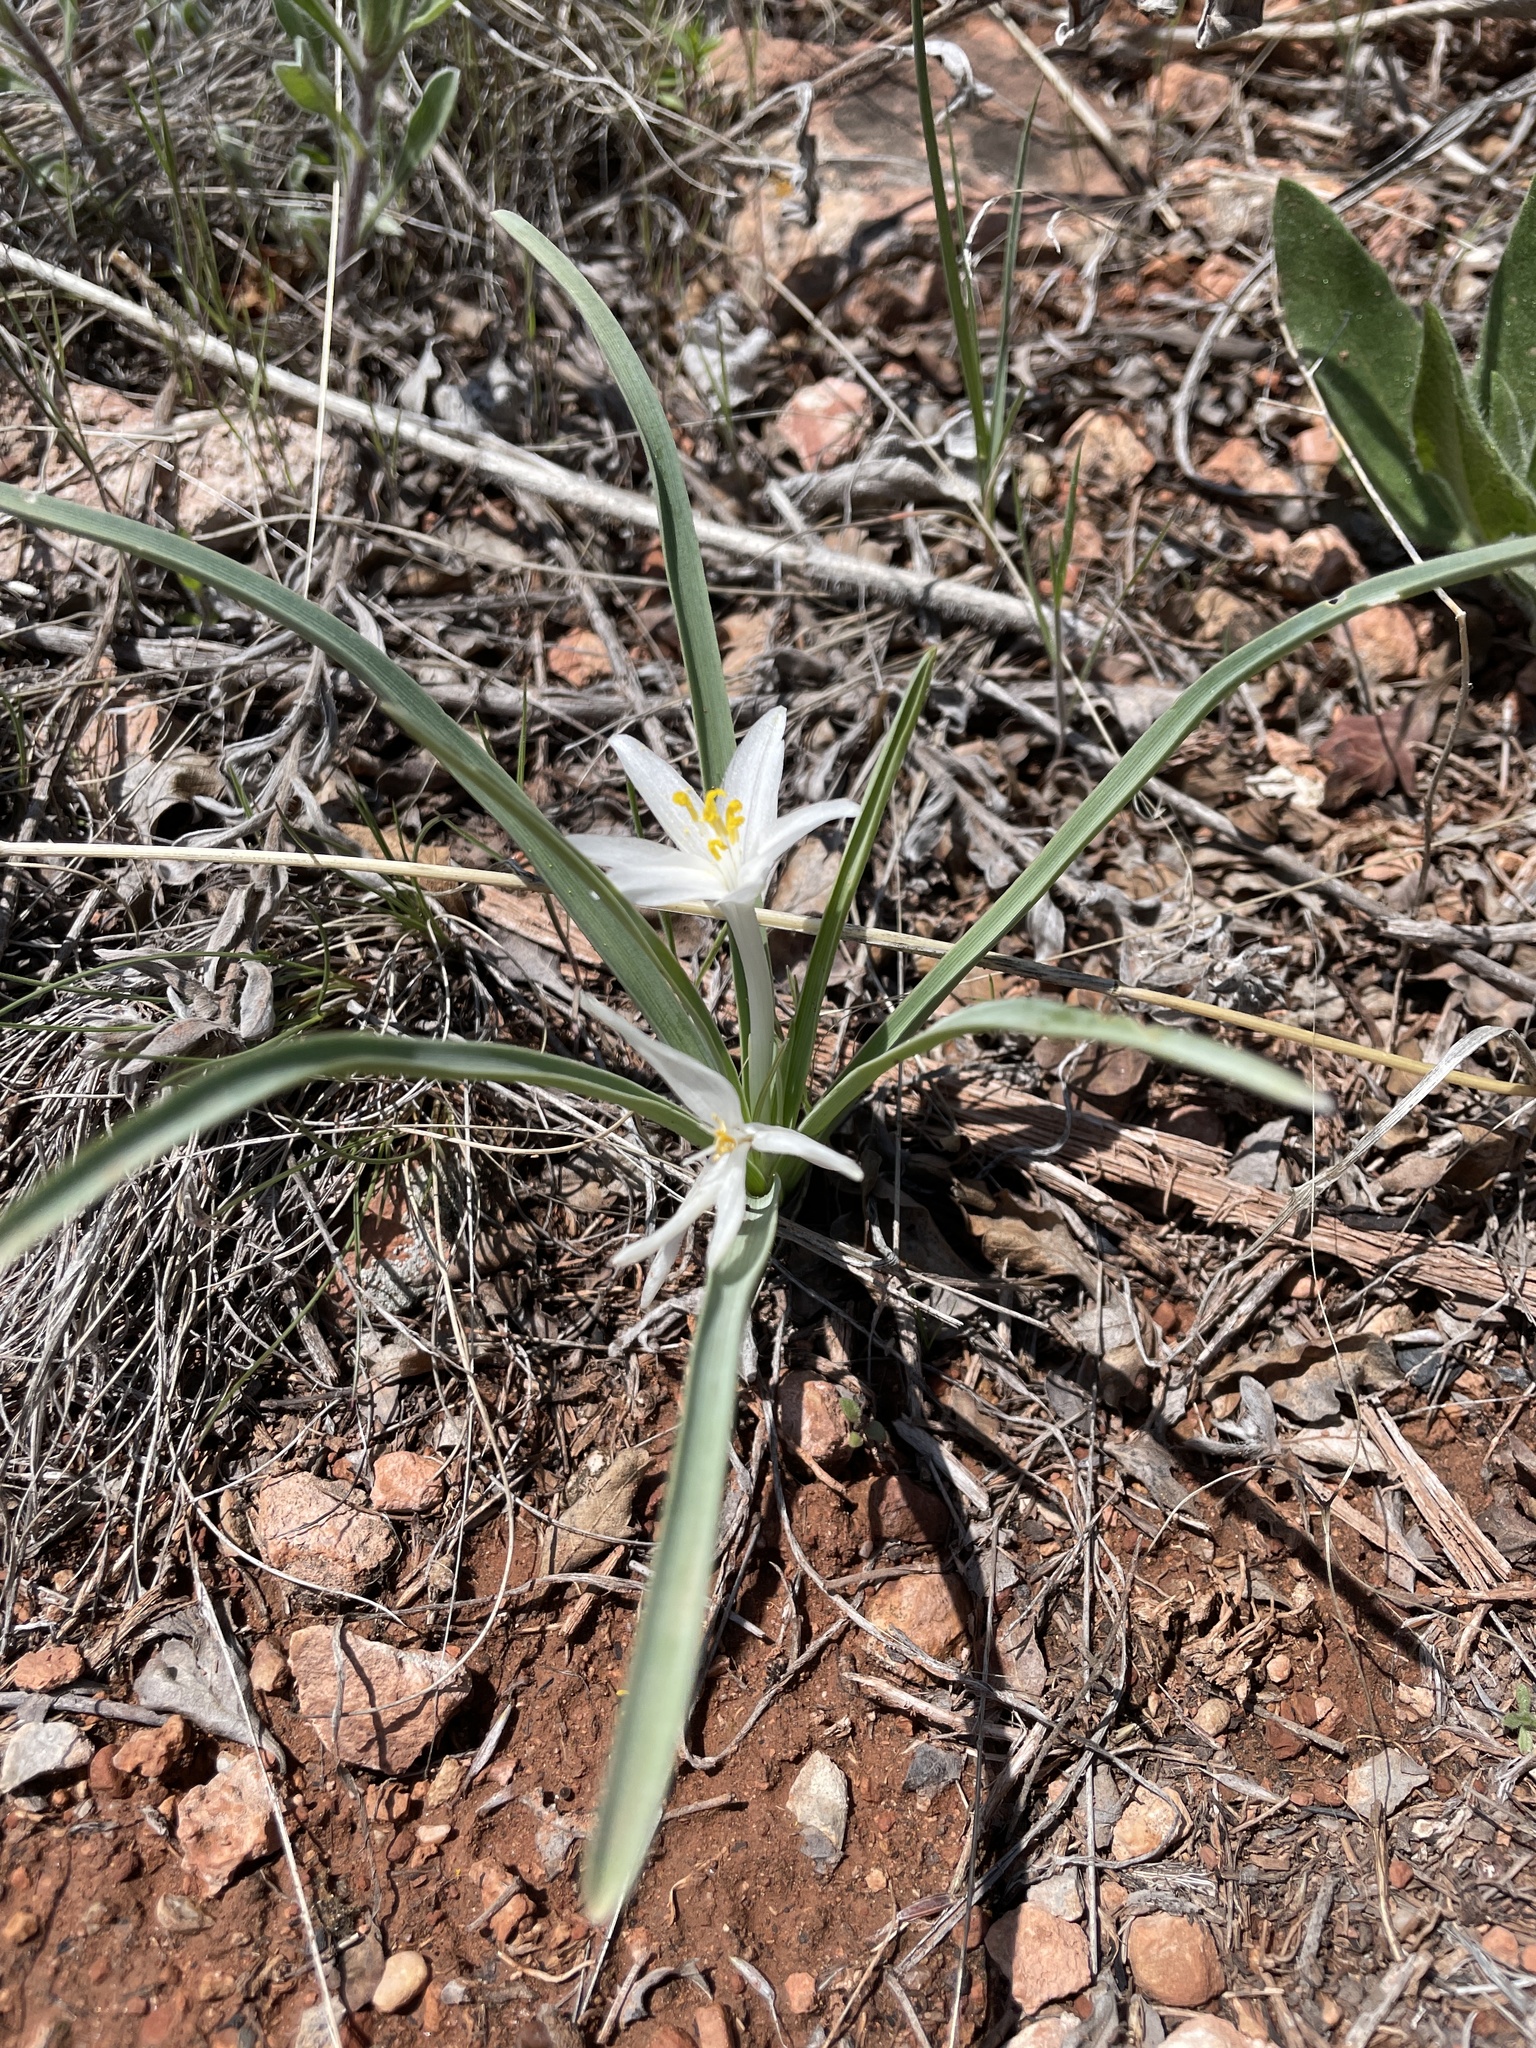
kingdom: Plantae
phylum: Tracheophyta
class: Liliopsida
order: Asparagales
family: Asparagaceae
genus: Leucocrinum
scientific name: Leucocrinum montanum
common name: Mountain-lily
